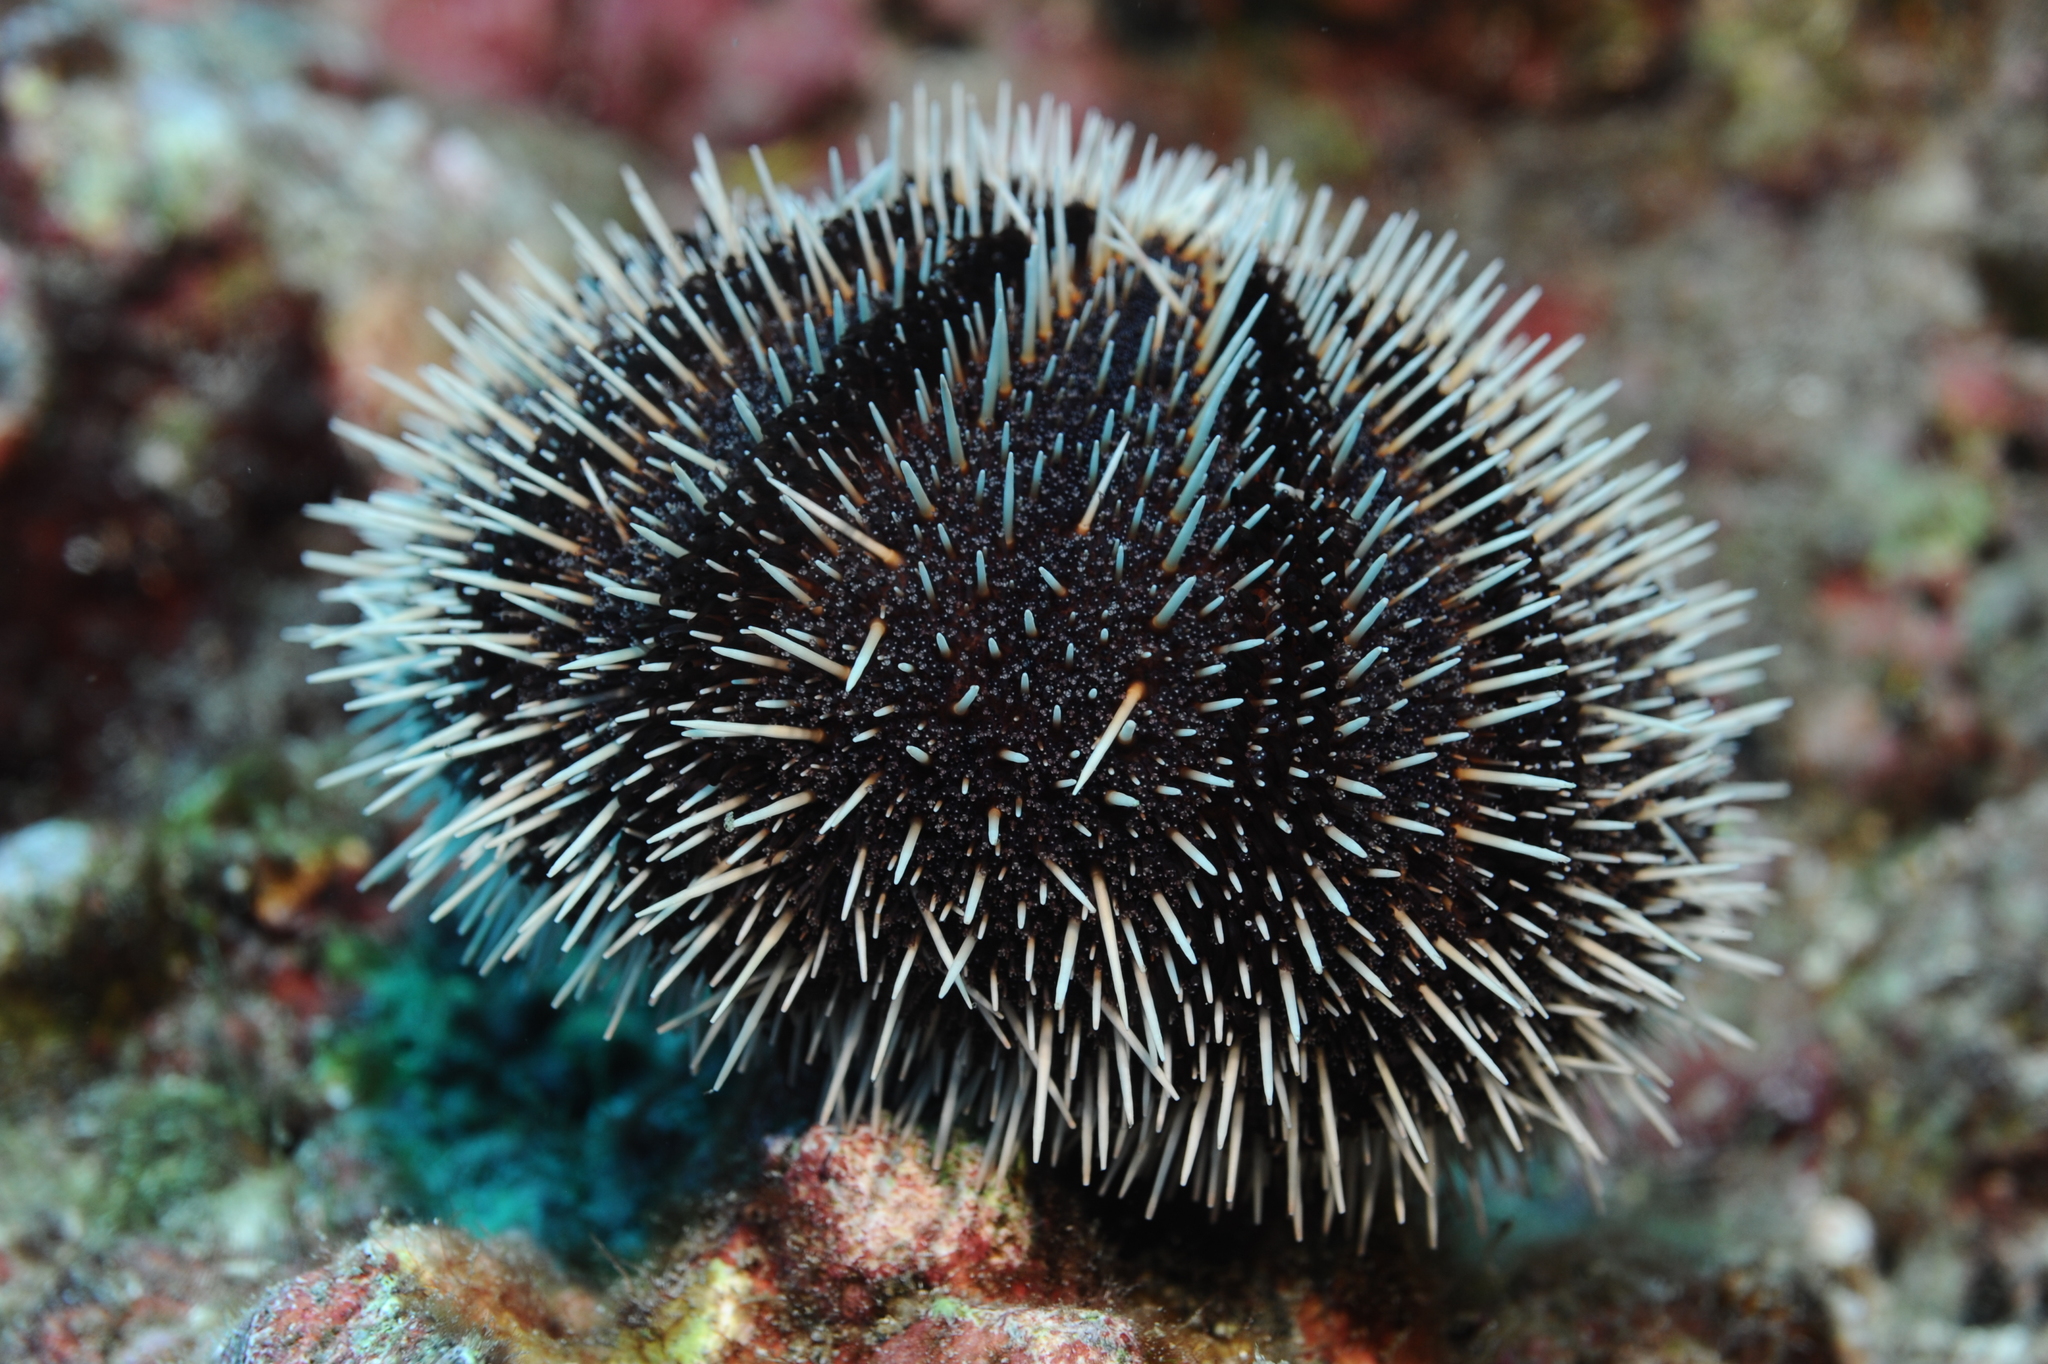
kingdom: Animalia
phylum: Echinodermata
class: Echinoidea
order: Camarodonta
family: Toxopneustidae
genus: Tripneustes
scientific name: Tripneustes depressus
